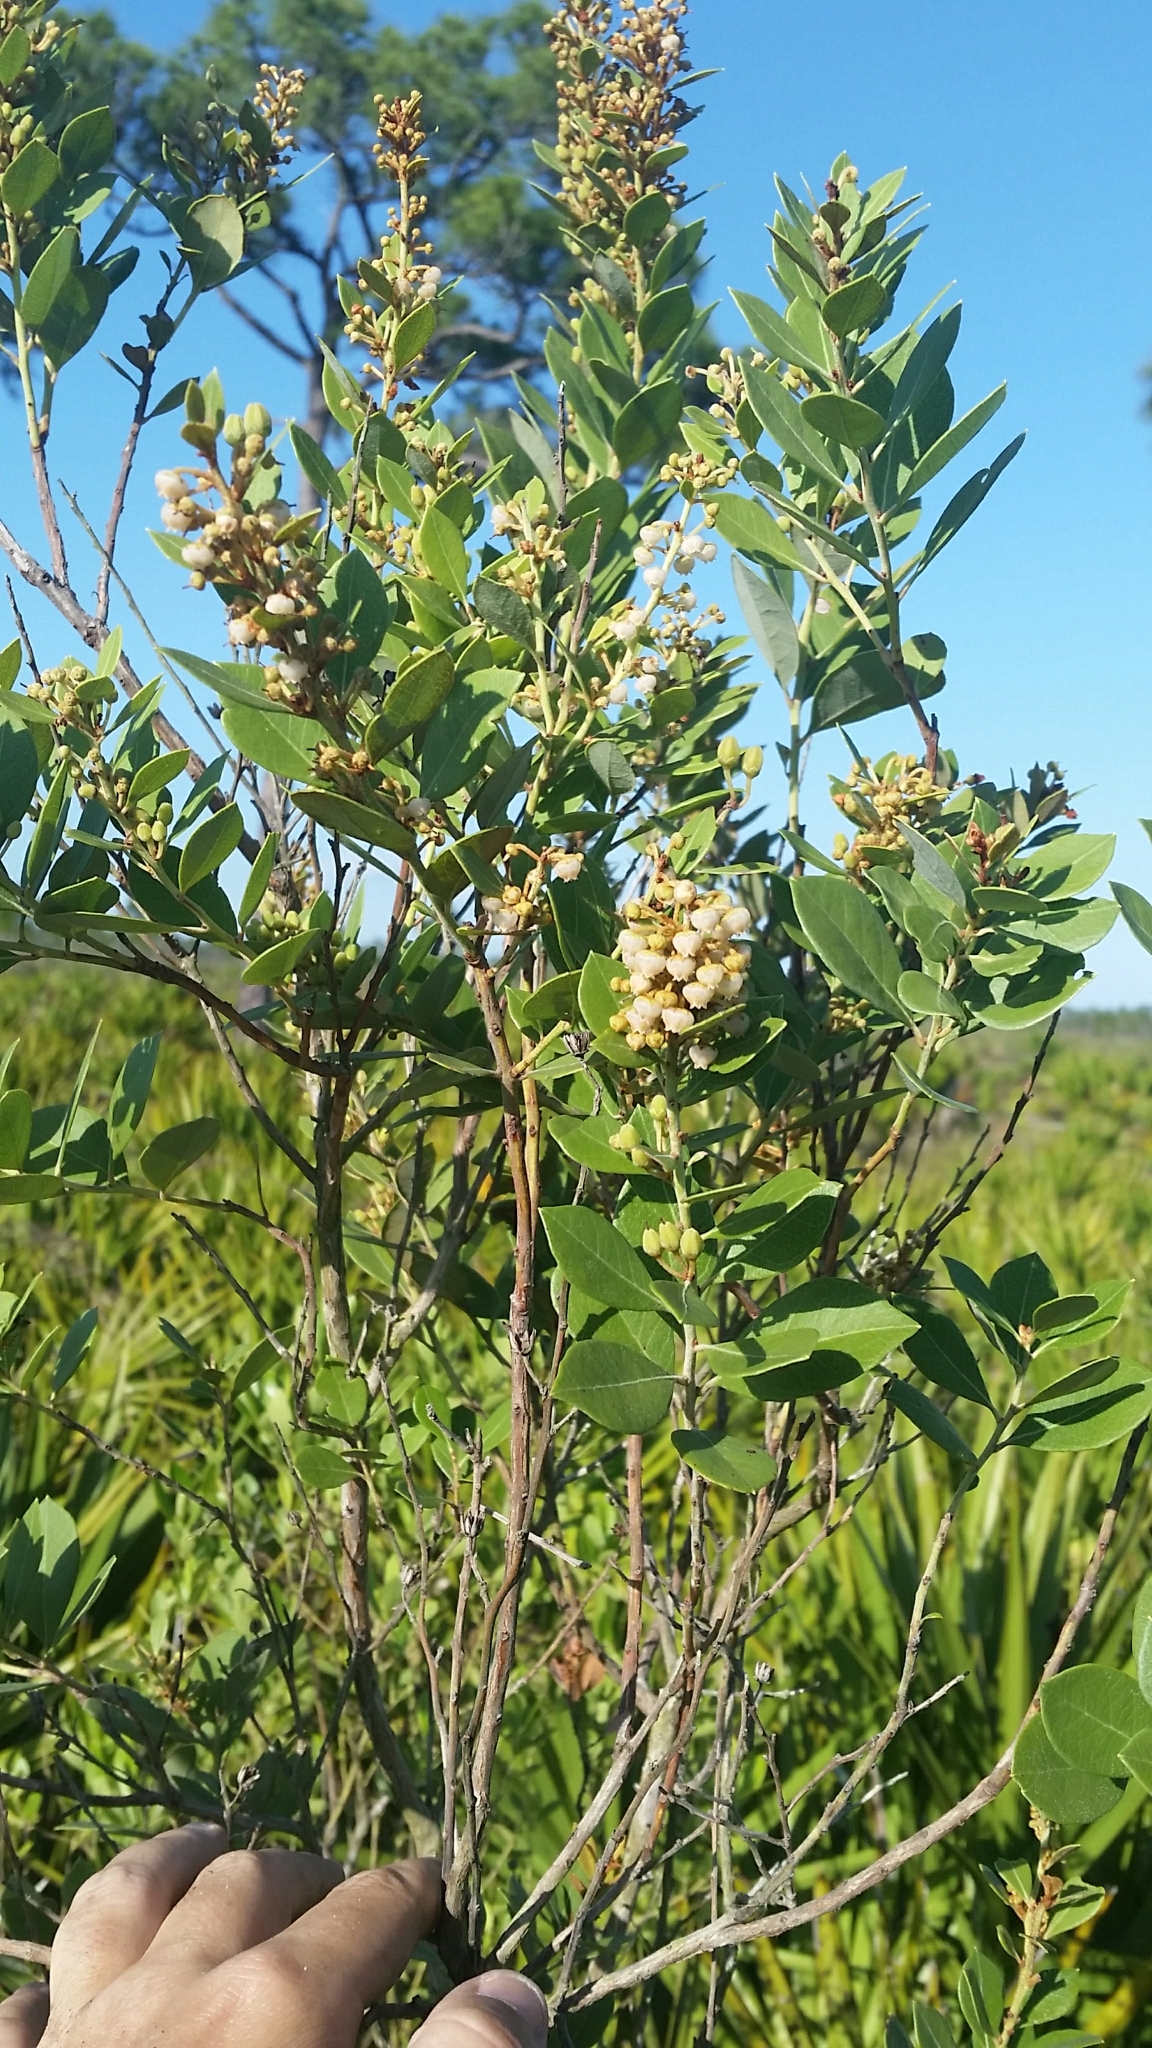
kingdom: Plantae
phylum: Tracheophyta
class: Magnoliopsida
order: Ericales
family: Ericaceae
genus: Lyonia
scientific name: Lyonia fruticosa
